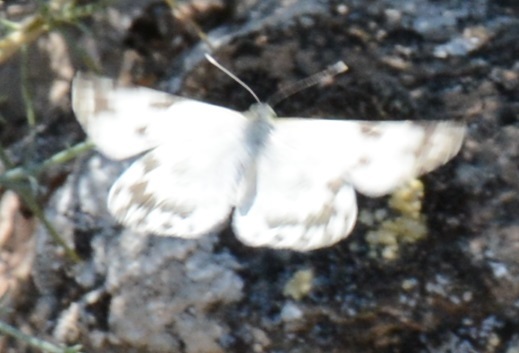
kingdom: Animalia
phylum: Arthropoda
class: Insecta
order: Lepidoptera
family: Pieridae
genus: Pontia
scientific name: Pontia edusa
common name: Eastern bath white
